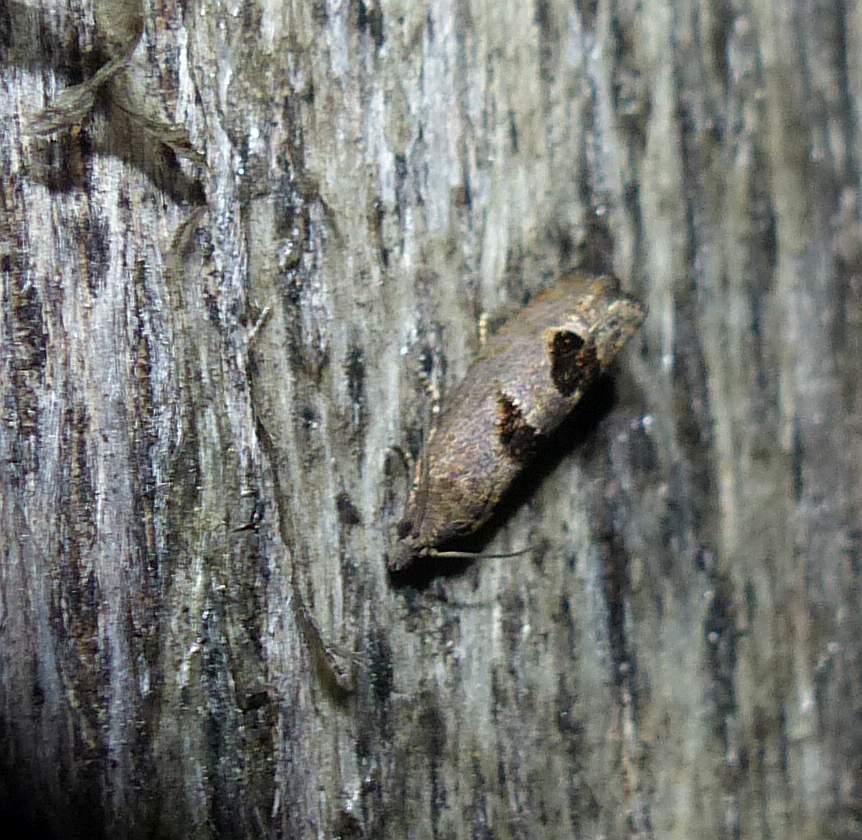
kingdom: Animalia
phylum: Arthropoda
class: Insecta
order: Lepidoptera
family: Tortricidae
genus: Eucosma
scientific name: Eucosma tomonana
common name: Aster-head eucosma moth
